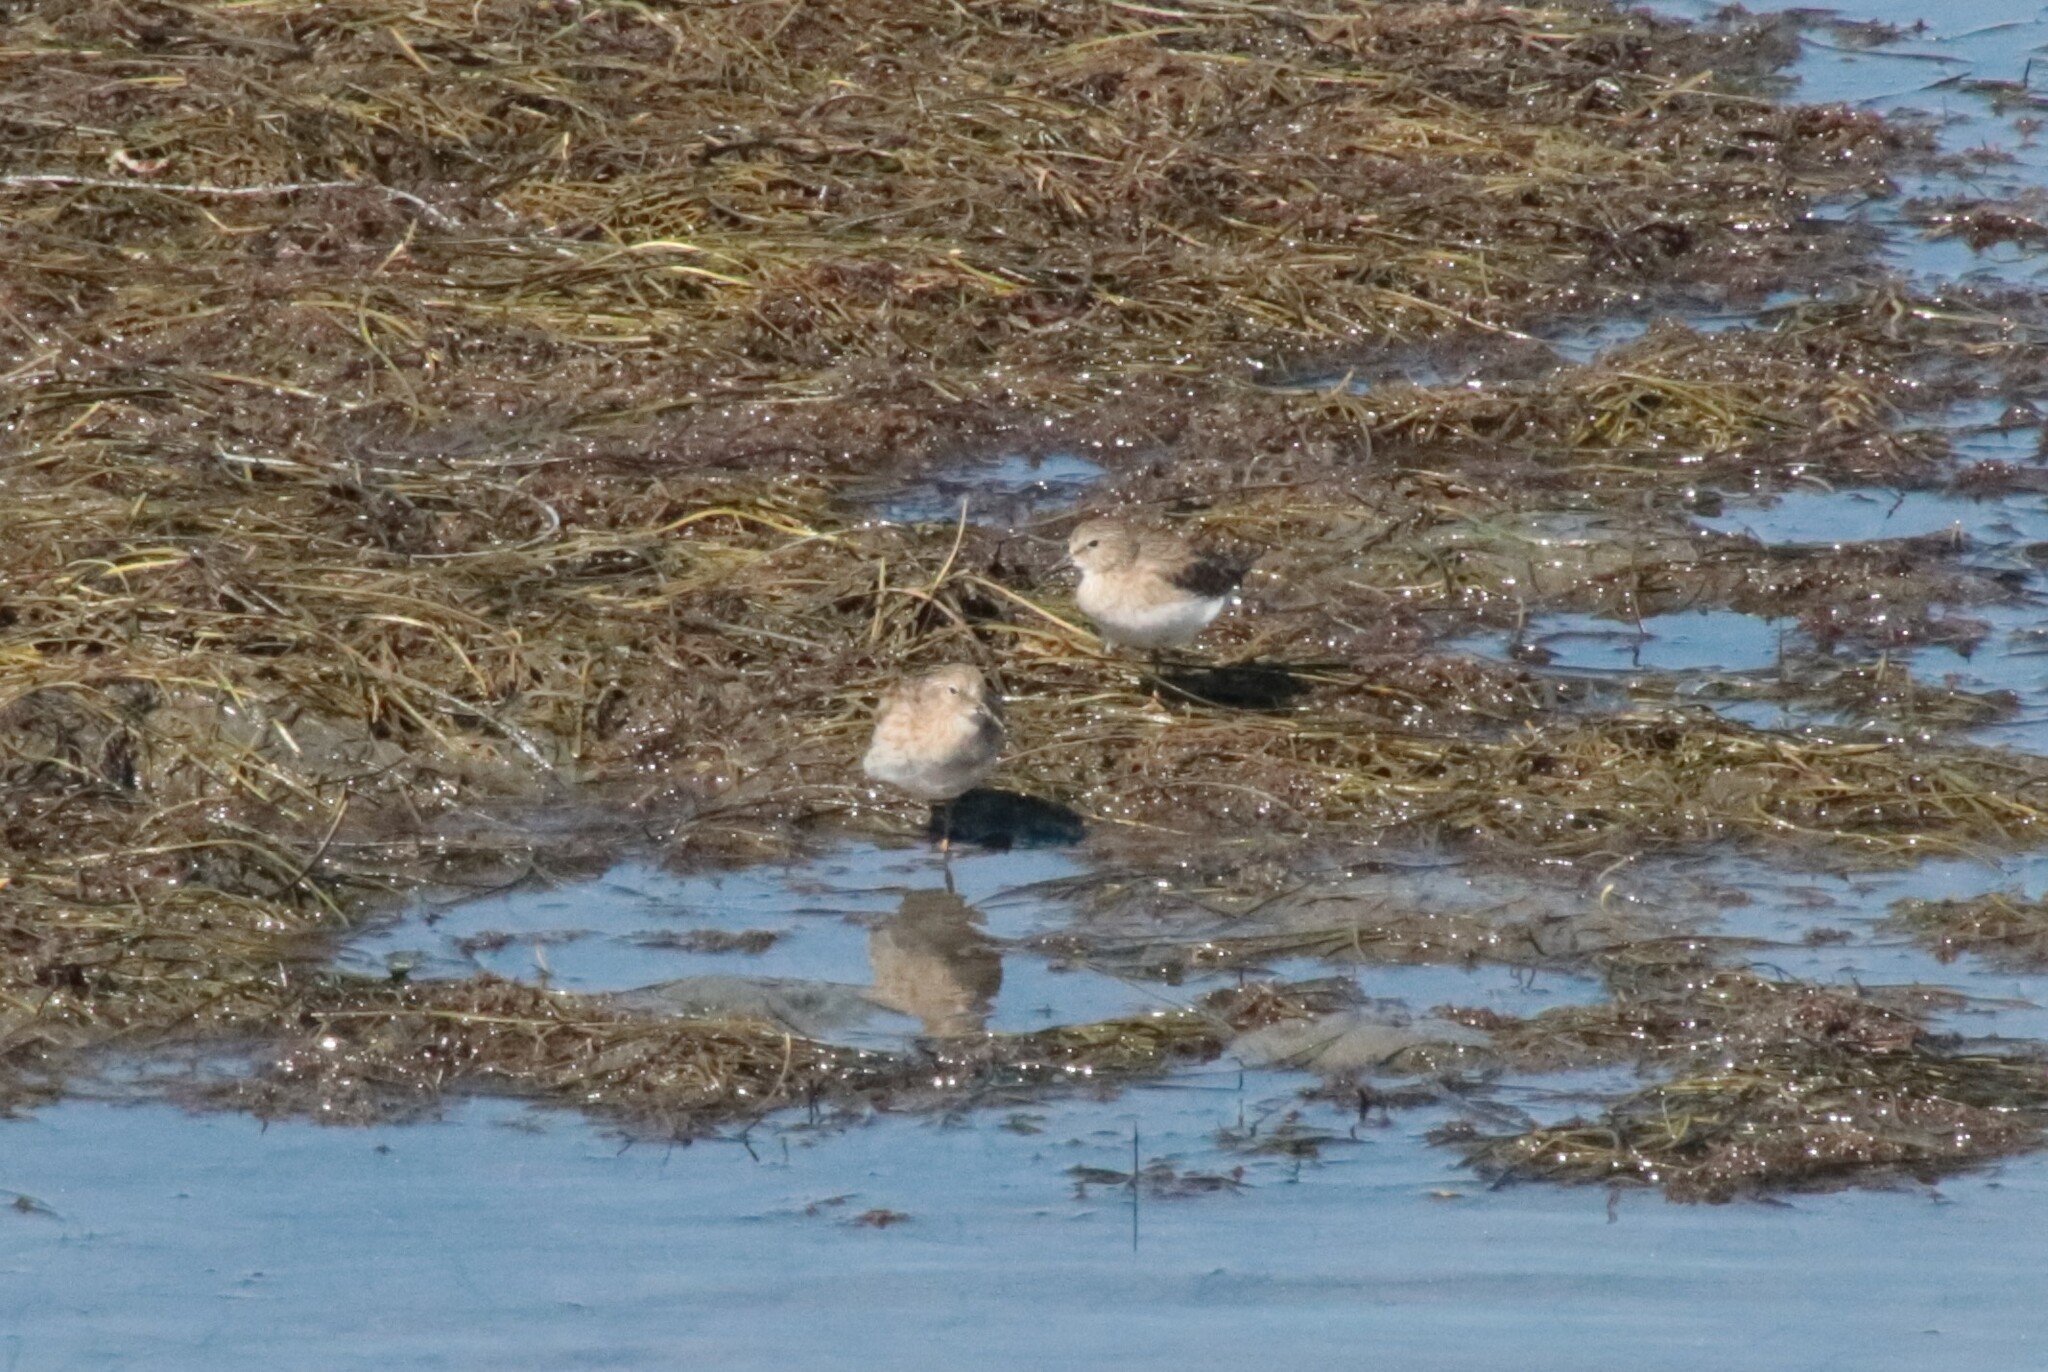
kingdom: Animalia
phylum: Chordata
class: Aves
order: Charadriiformes
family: Scolopacidae
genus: Calidris
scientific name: Calidris minutilla
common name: Least sandpiper
